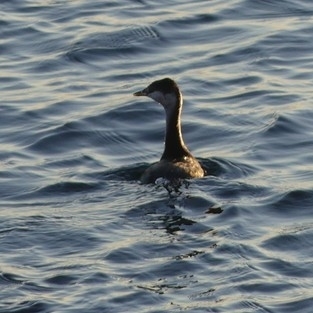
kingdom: Animalia
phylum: Chordata
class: Aves
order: Podicipediformes
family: Podicipedidae
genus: Podiceps
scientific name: Podiceps auritus
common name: Horned grebe
